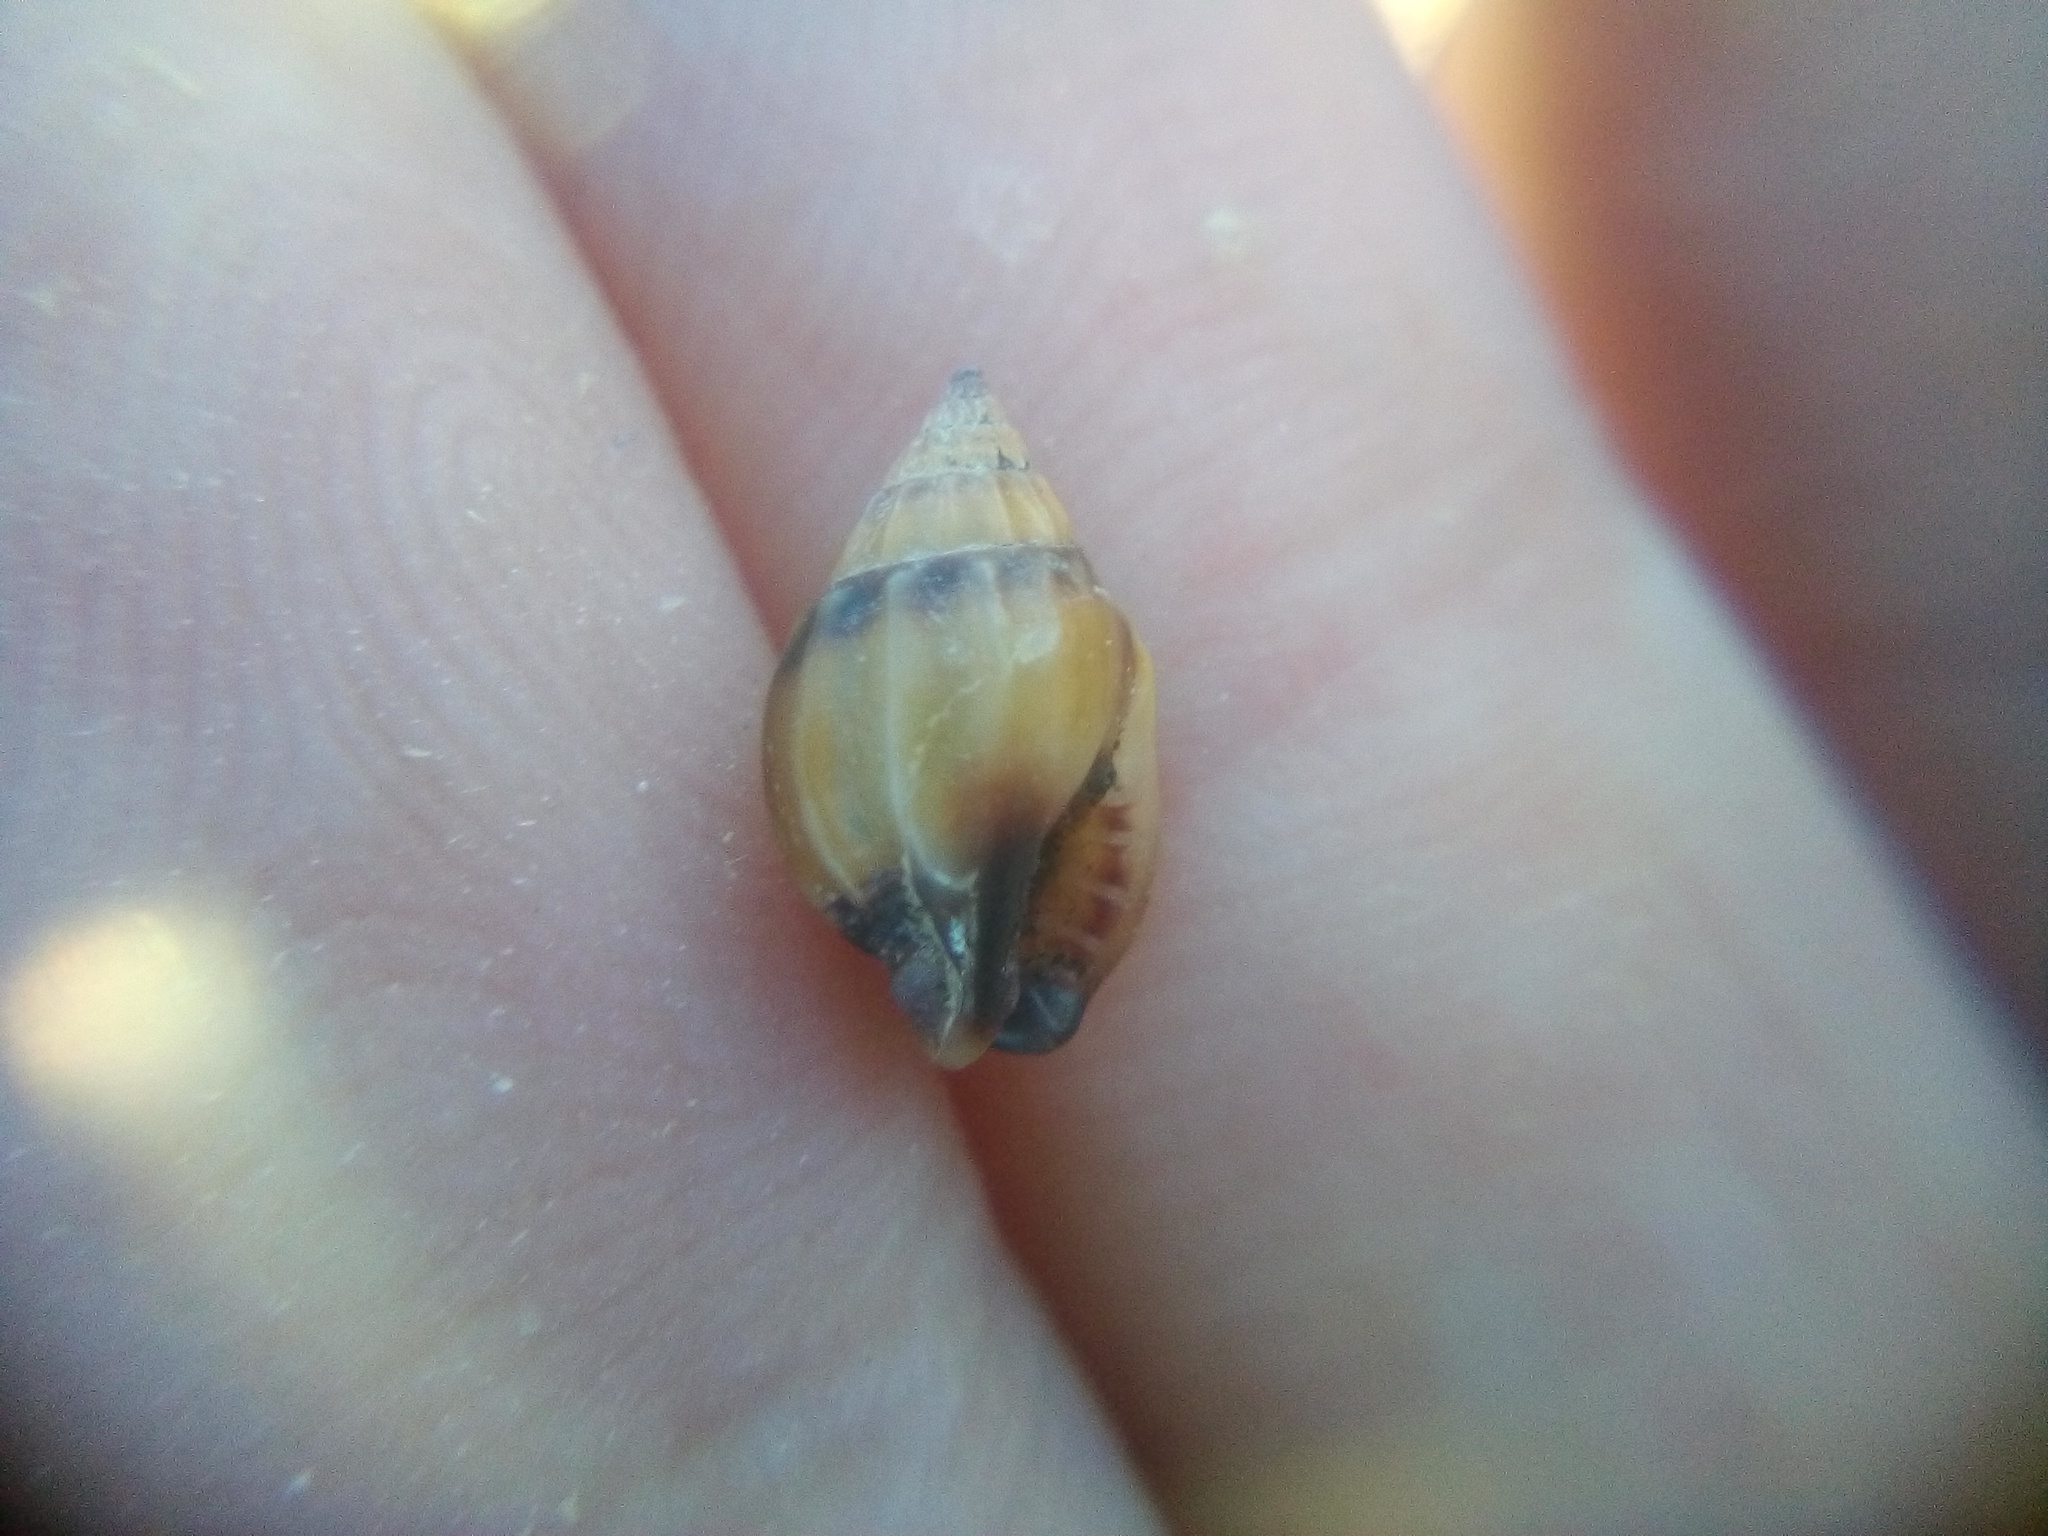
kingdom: Animalia
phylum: Mollusca
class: Gastropoda
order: Neogastropoda
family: Nassariidae
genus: Tritia
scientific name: Tritia burchardi
